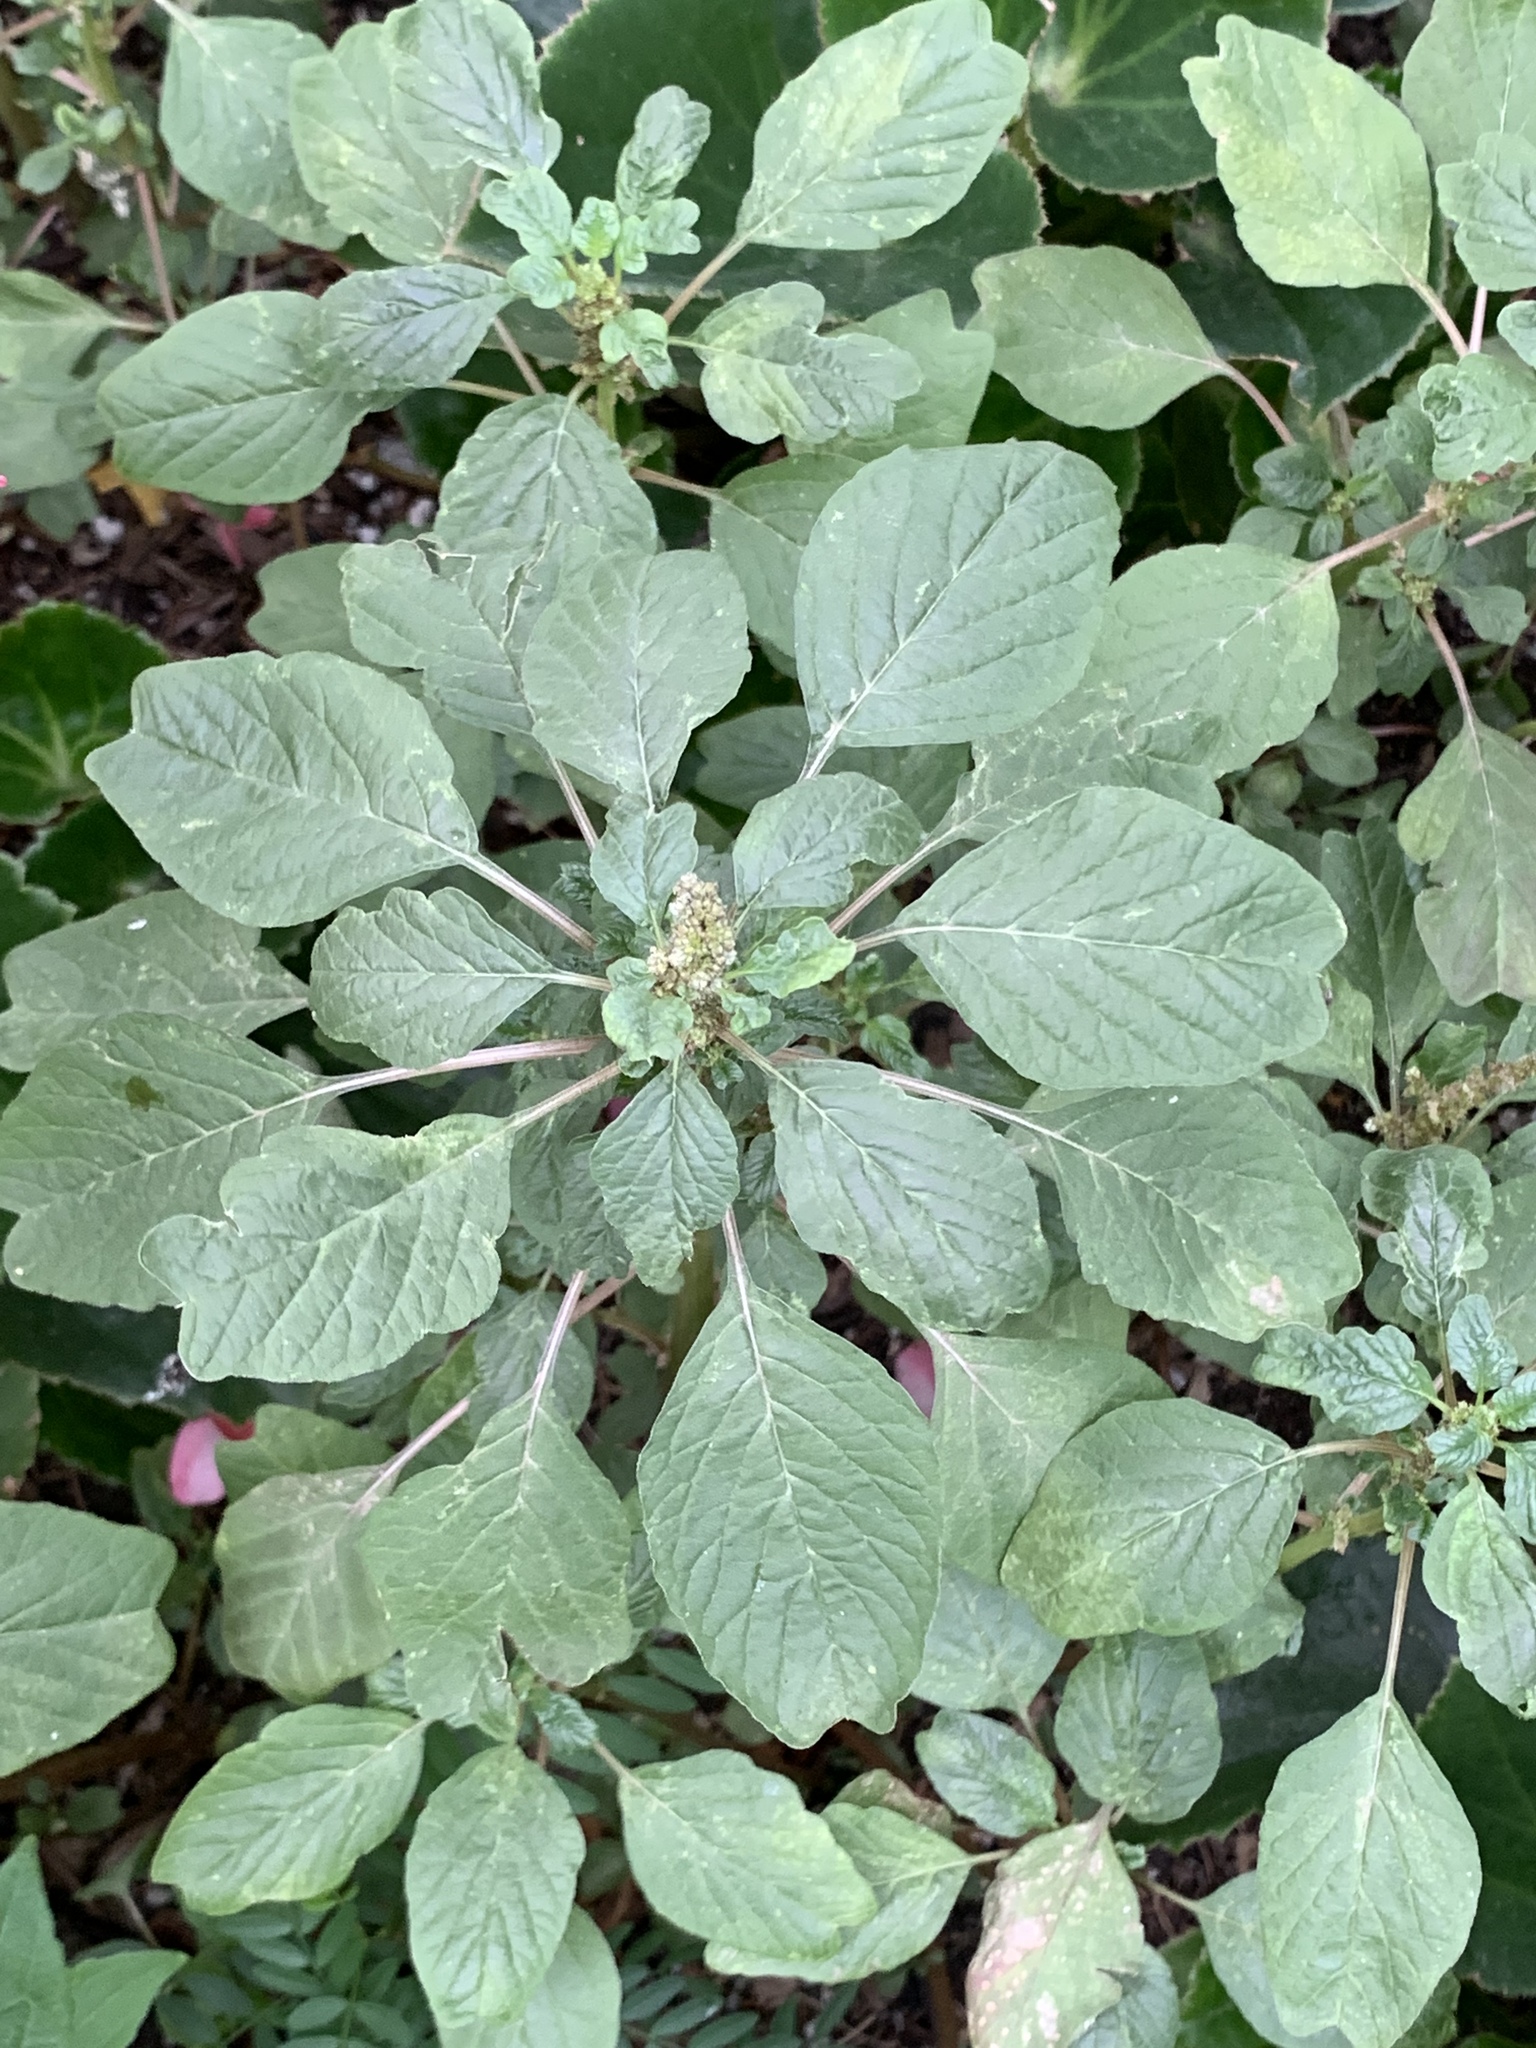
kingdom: Plantae
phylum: Tracheophyta
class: Magnoliopsida
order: Caryophyllales
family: Amaranthaceae
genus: Amaranthus
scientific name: Amaranthus blitum
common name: Purple amaranth
